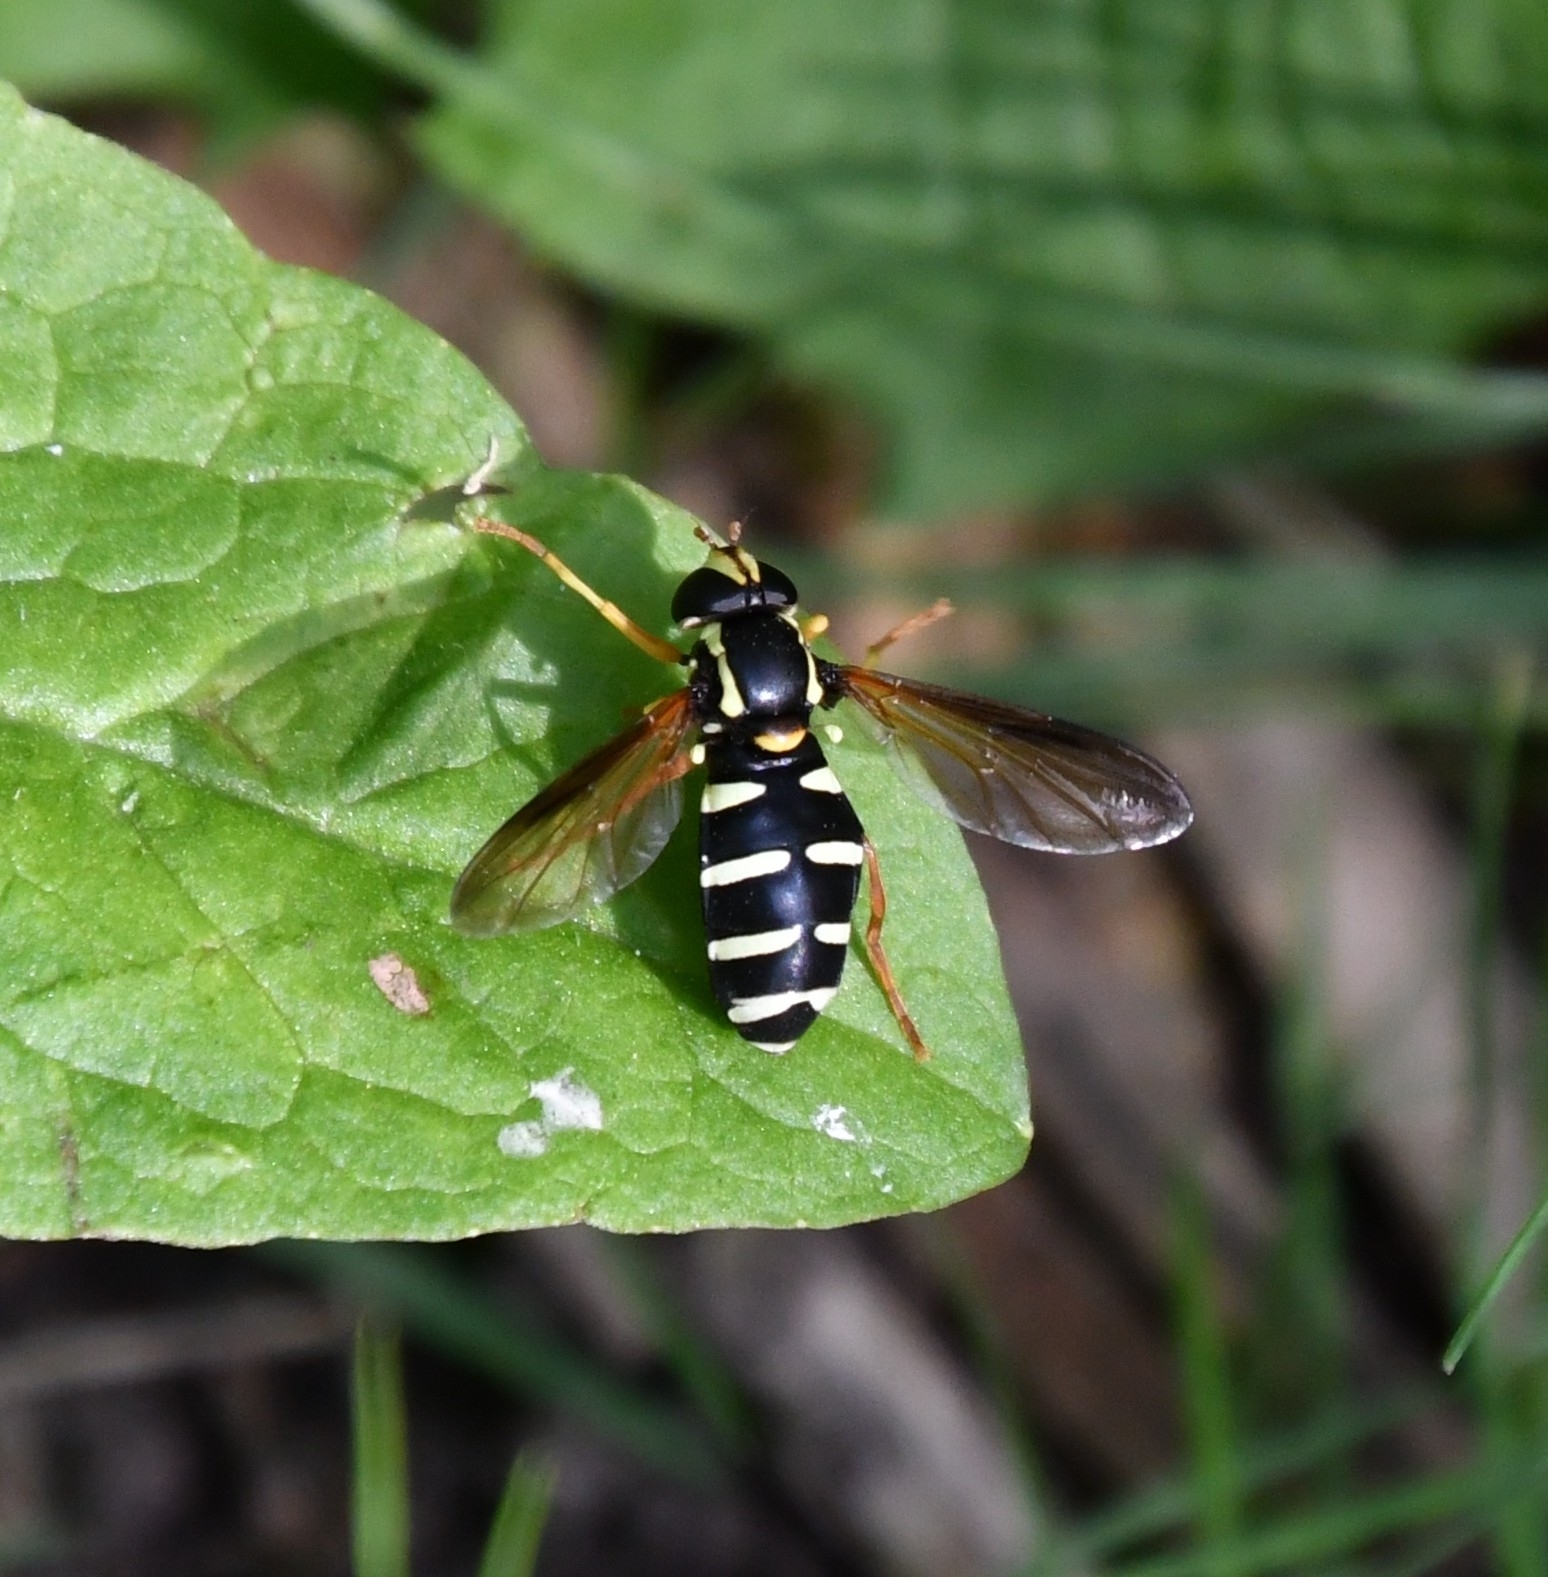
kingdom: Animalia
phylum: Arthropoda
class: Insecta
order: Diptera
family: Syrphidae
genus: Philhelius
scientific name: Philhelius citrofasciata
